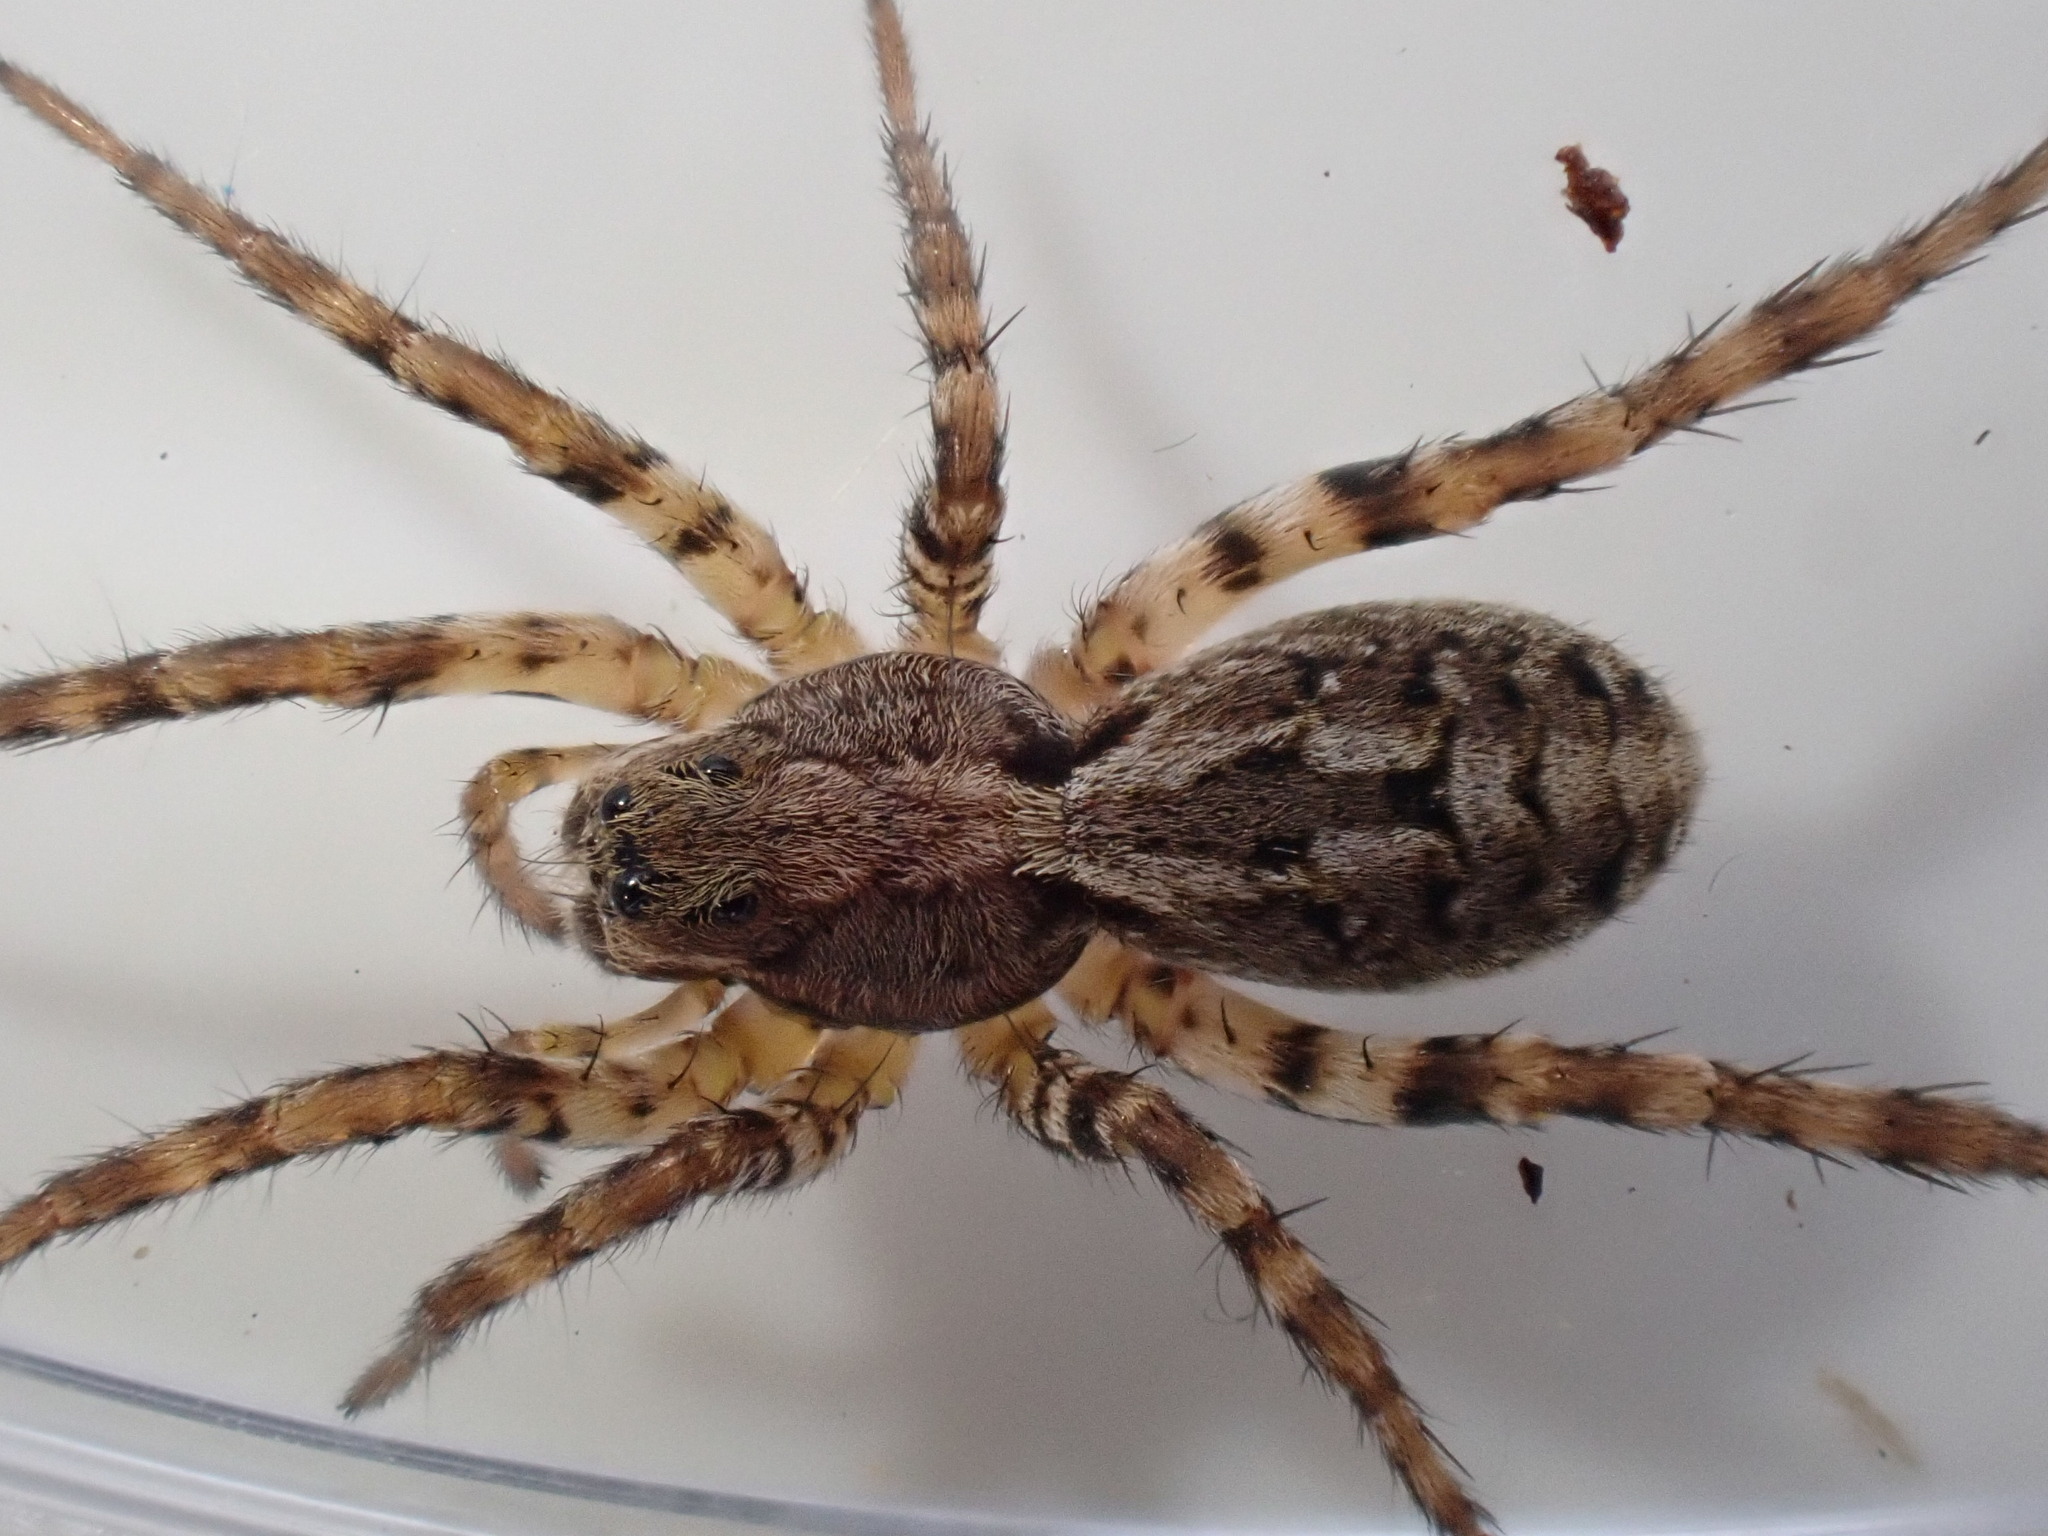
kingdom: Animalia
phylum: Arthropoda
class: Arachnida
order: Araneae
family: Lycosidae
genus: Alopecosa
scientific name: Alopecosa barbipes
